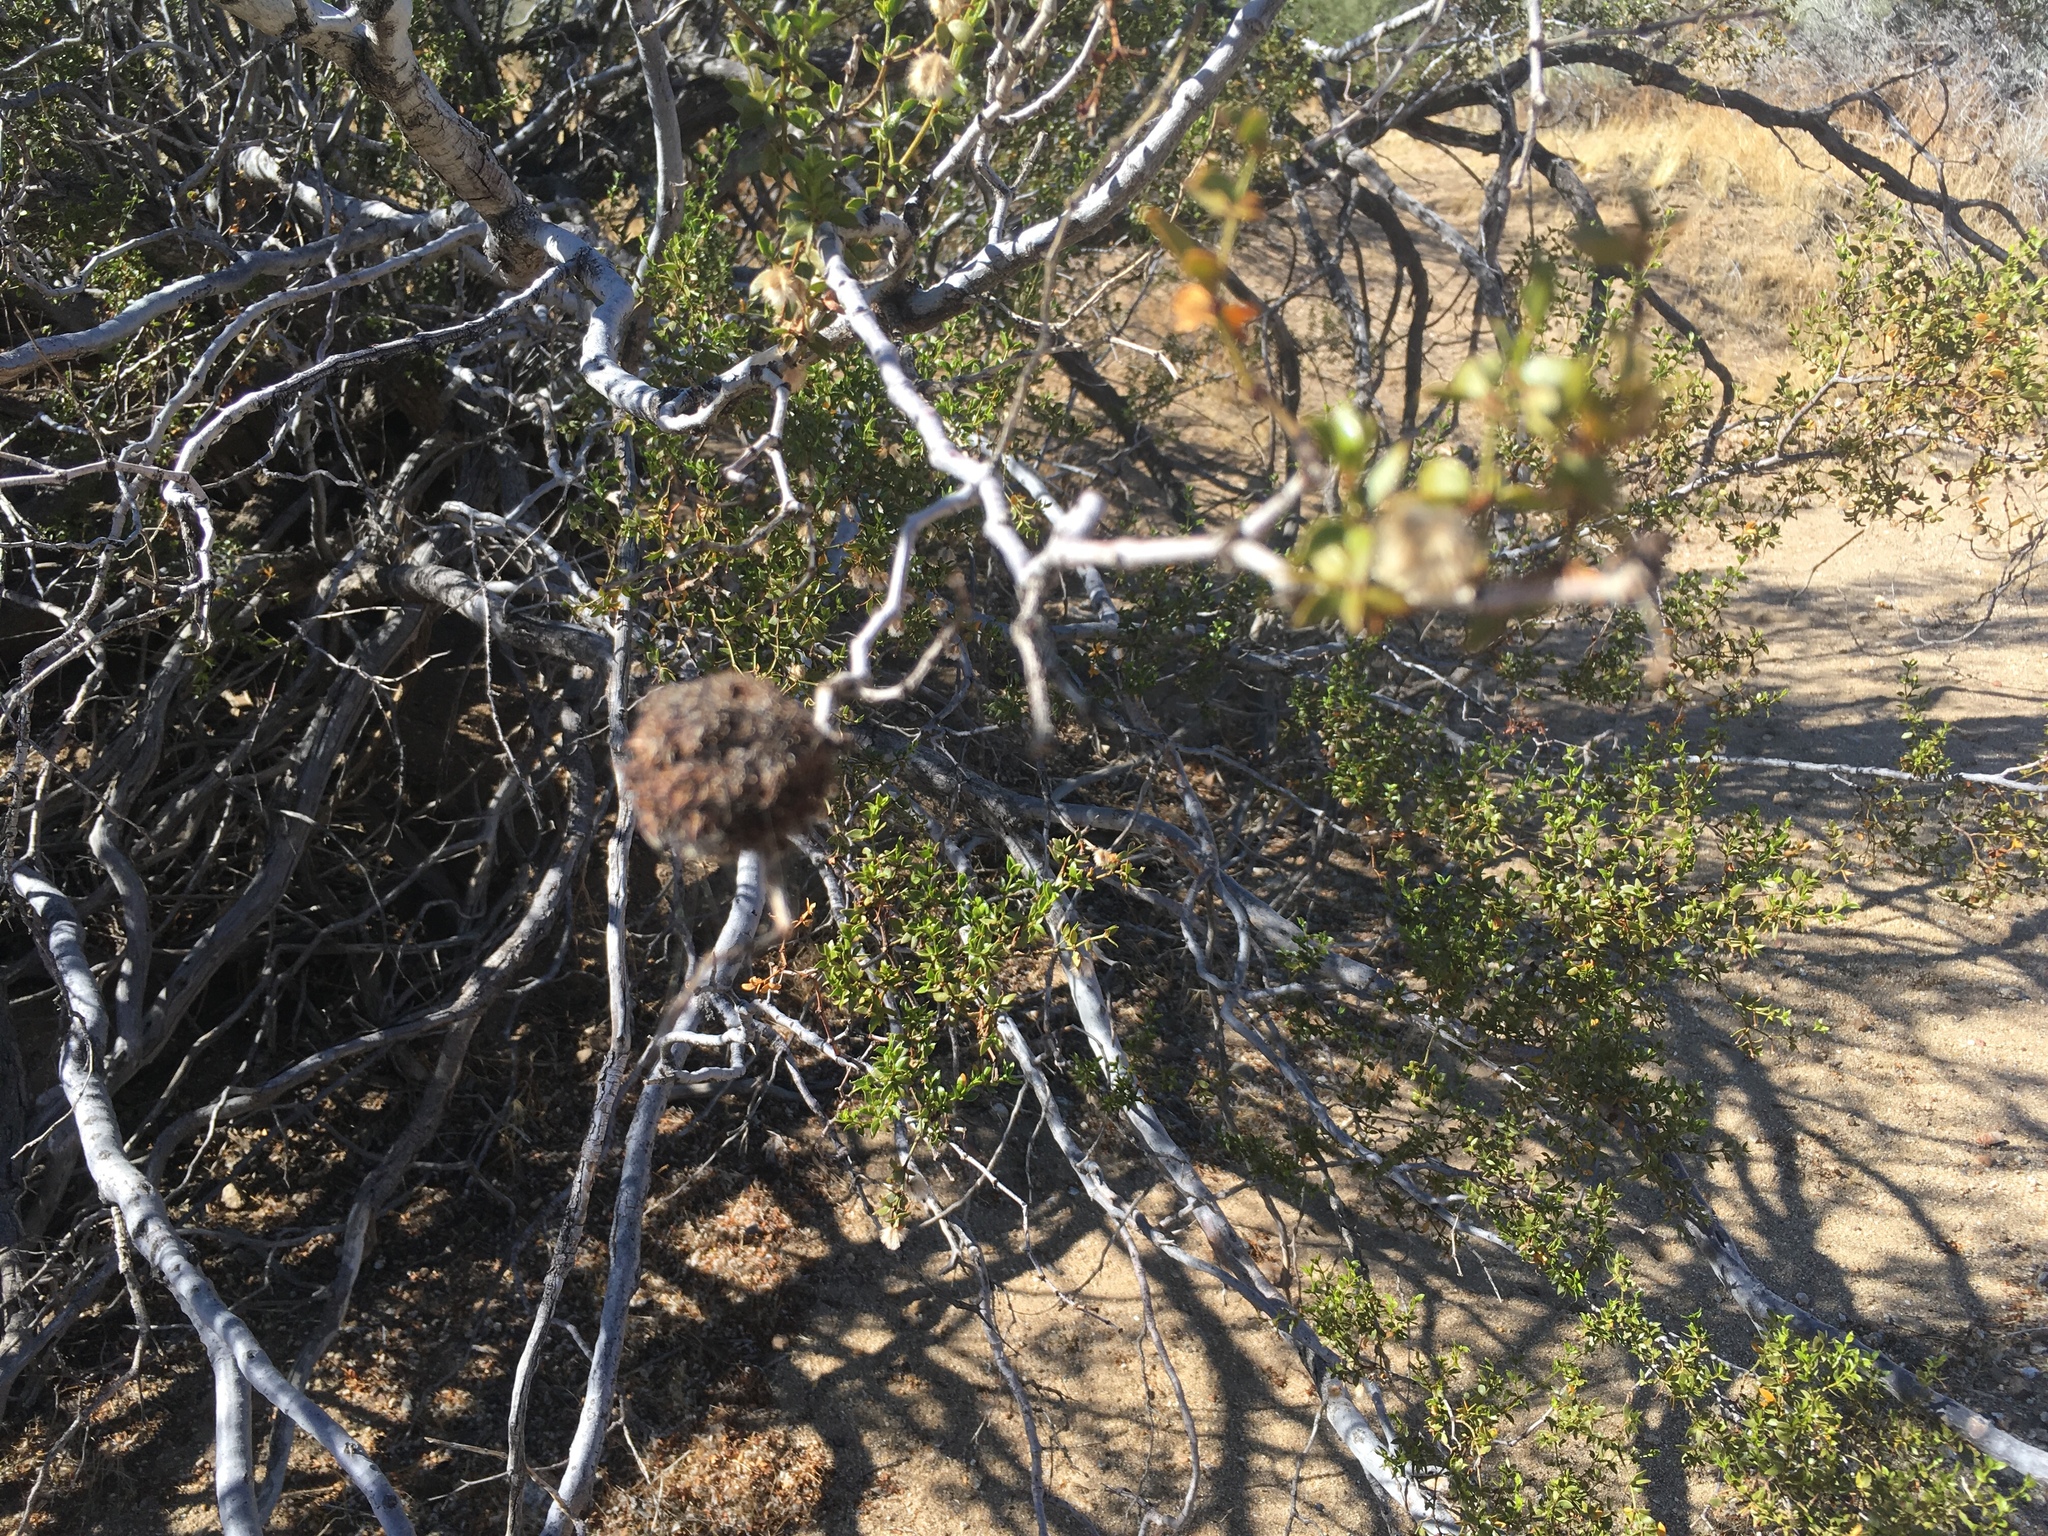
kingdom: Animalia
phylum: Arthropoda
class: Insecta
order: Diptera
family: Cecidomyiidae
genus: Asphondylia
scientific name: Asphondylia auripila
